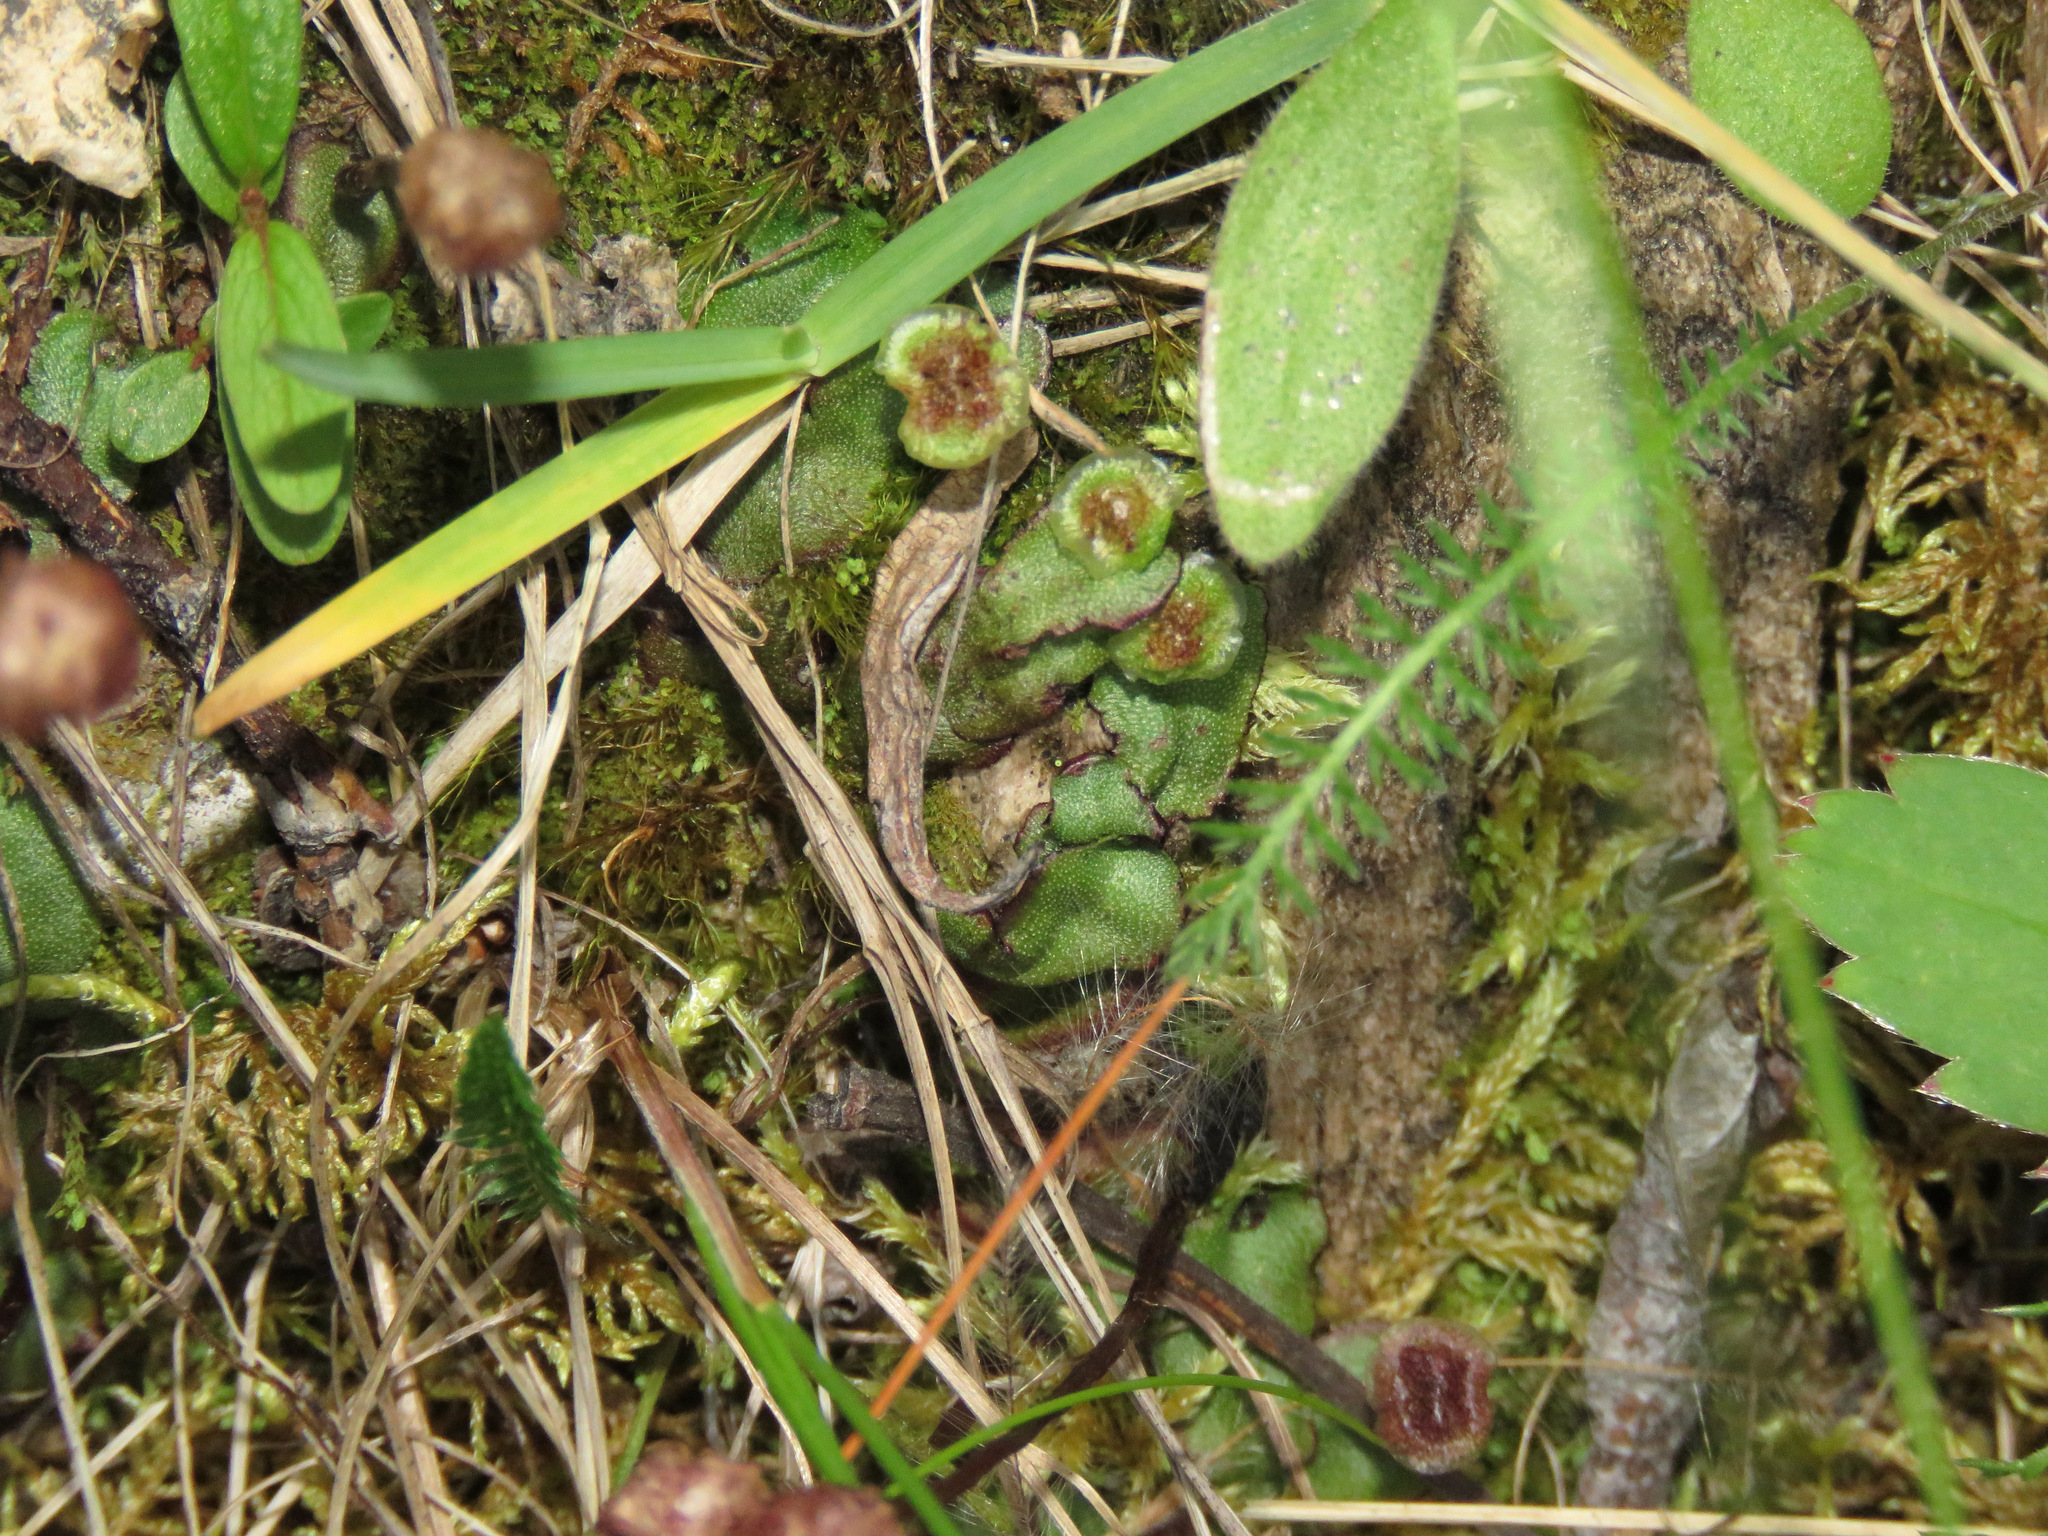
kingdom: Plantae
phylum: Marchantiophyta
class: Marchantiopsida
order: Marchantiales
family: Marchantiaceae
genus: Marchantia
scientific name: Marchantia quadrata
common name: Narrow mushroom-headed liverwort
